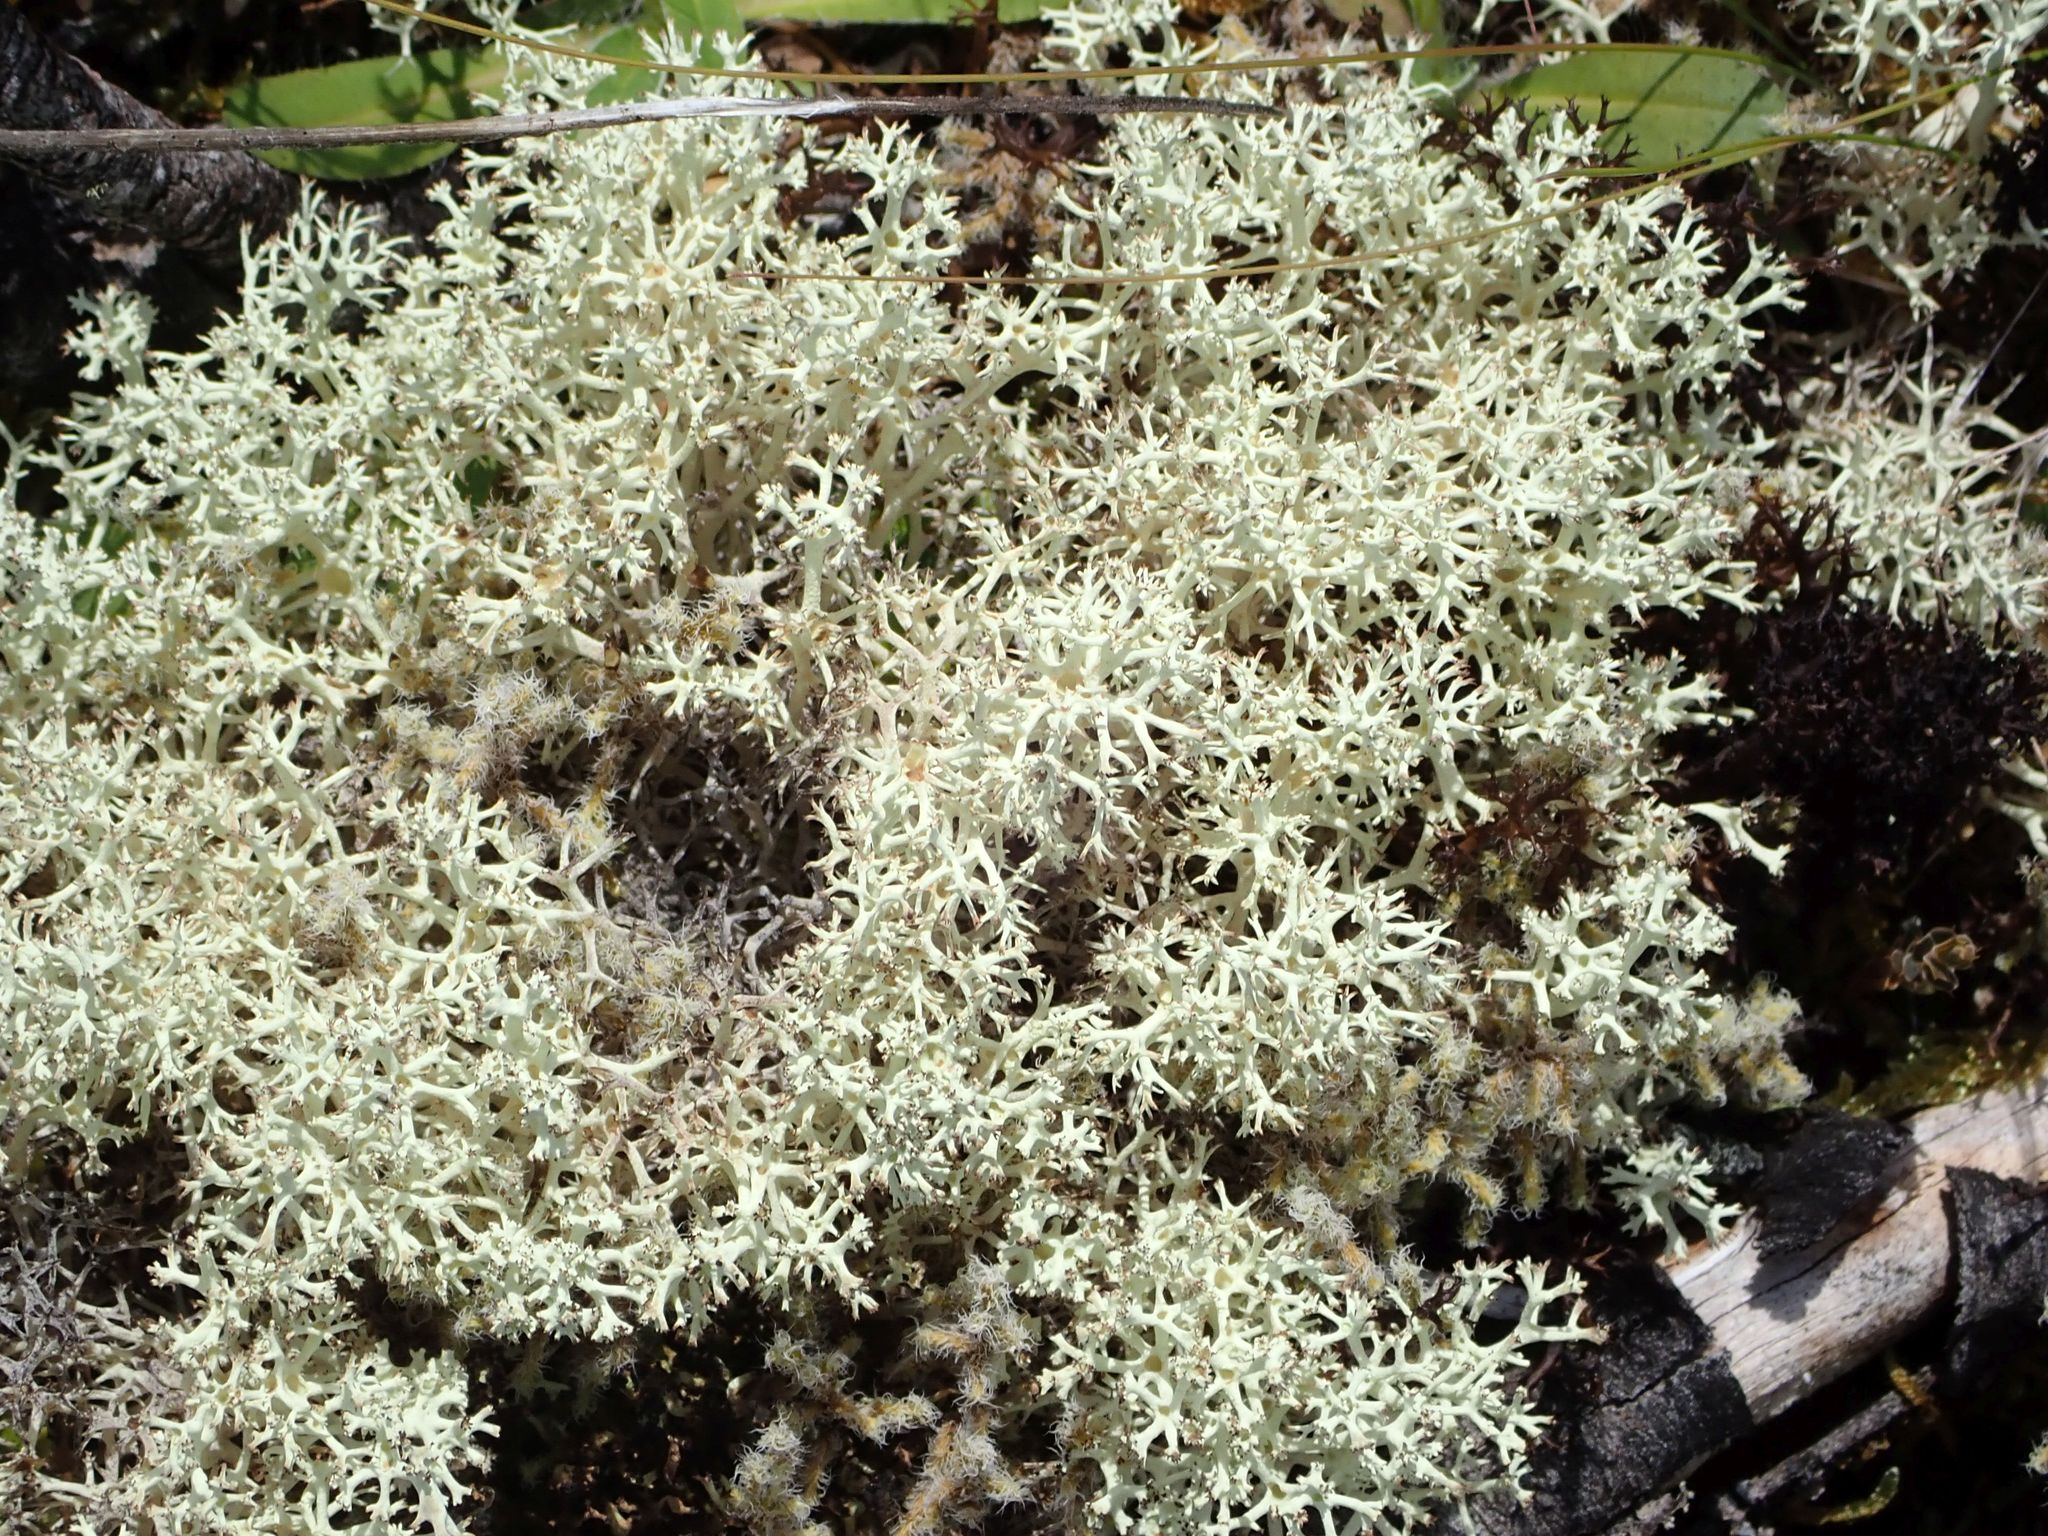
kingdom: Fungi
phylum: Ascomycota
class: Lecanoromycetes
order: Lecanorales
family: Cladoniaceae
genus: Cladonia
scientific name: Cladonia confusa
